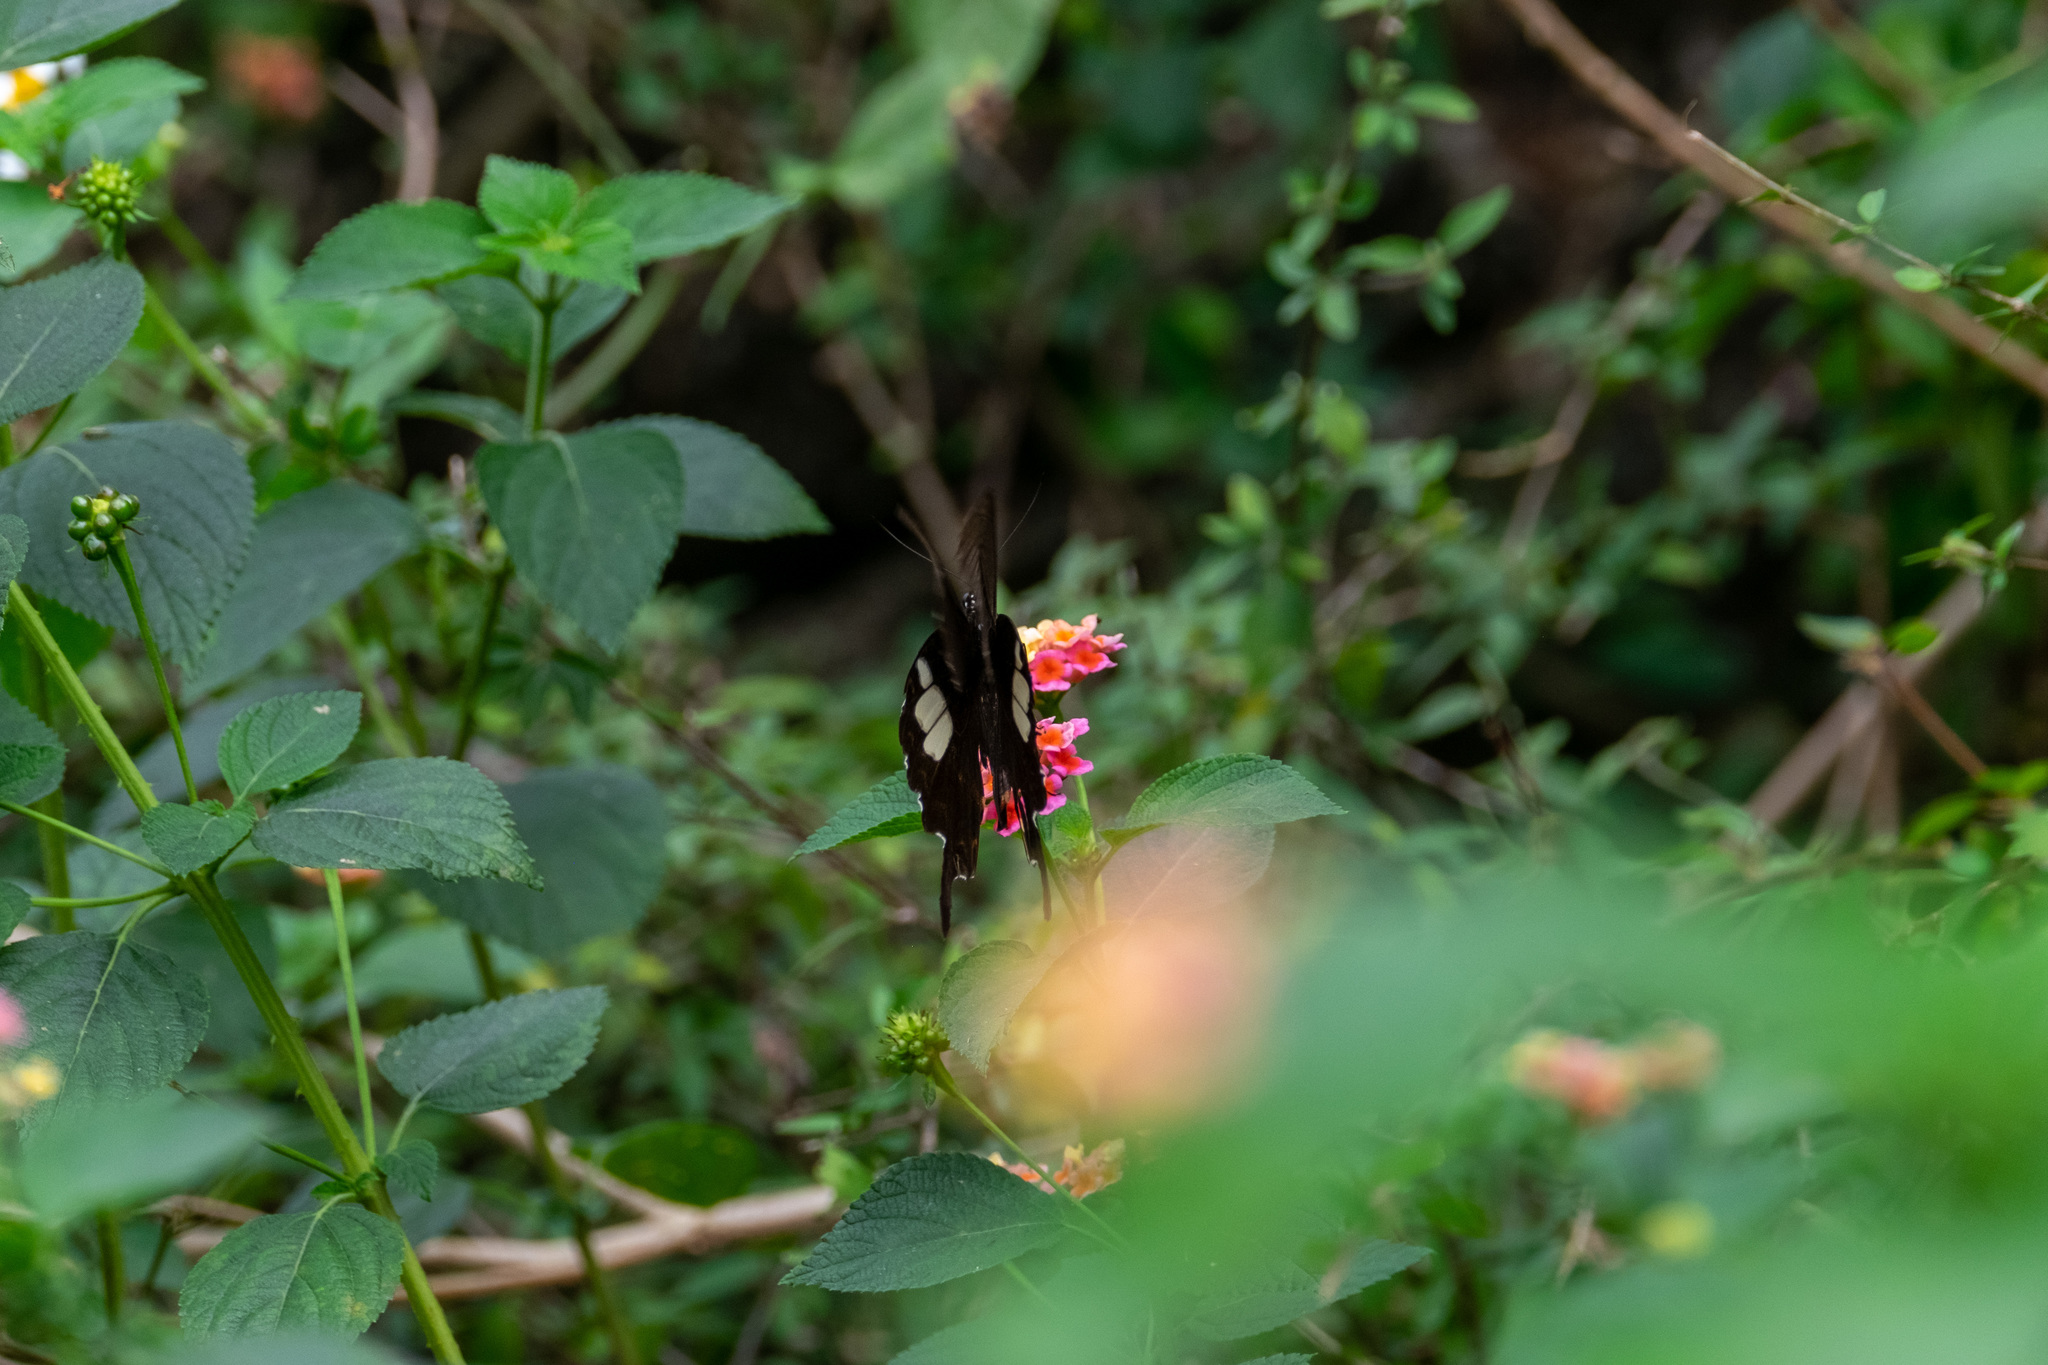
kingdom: Animalia
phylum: Arthropoda
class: Insecta
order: Lepidoptera
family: Papilionidae
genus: Papilio
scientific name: Papilio helenus
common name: Red helen
